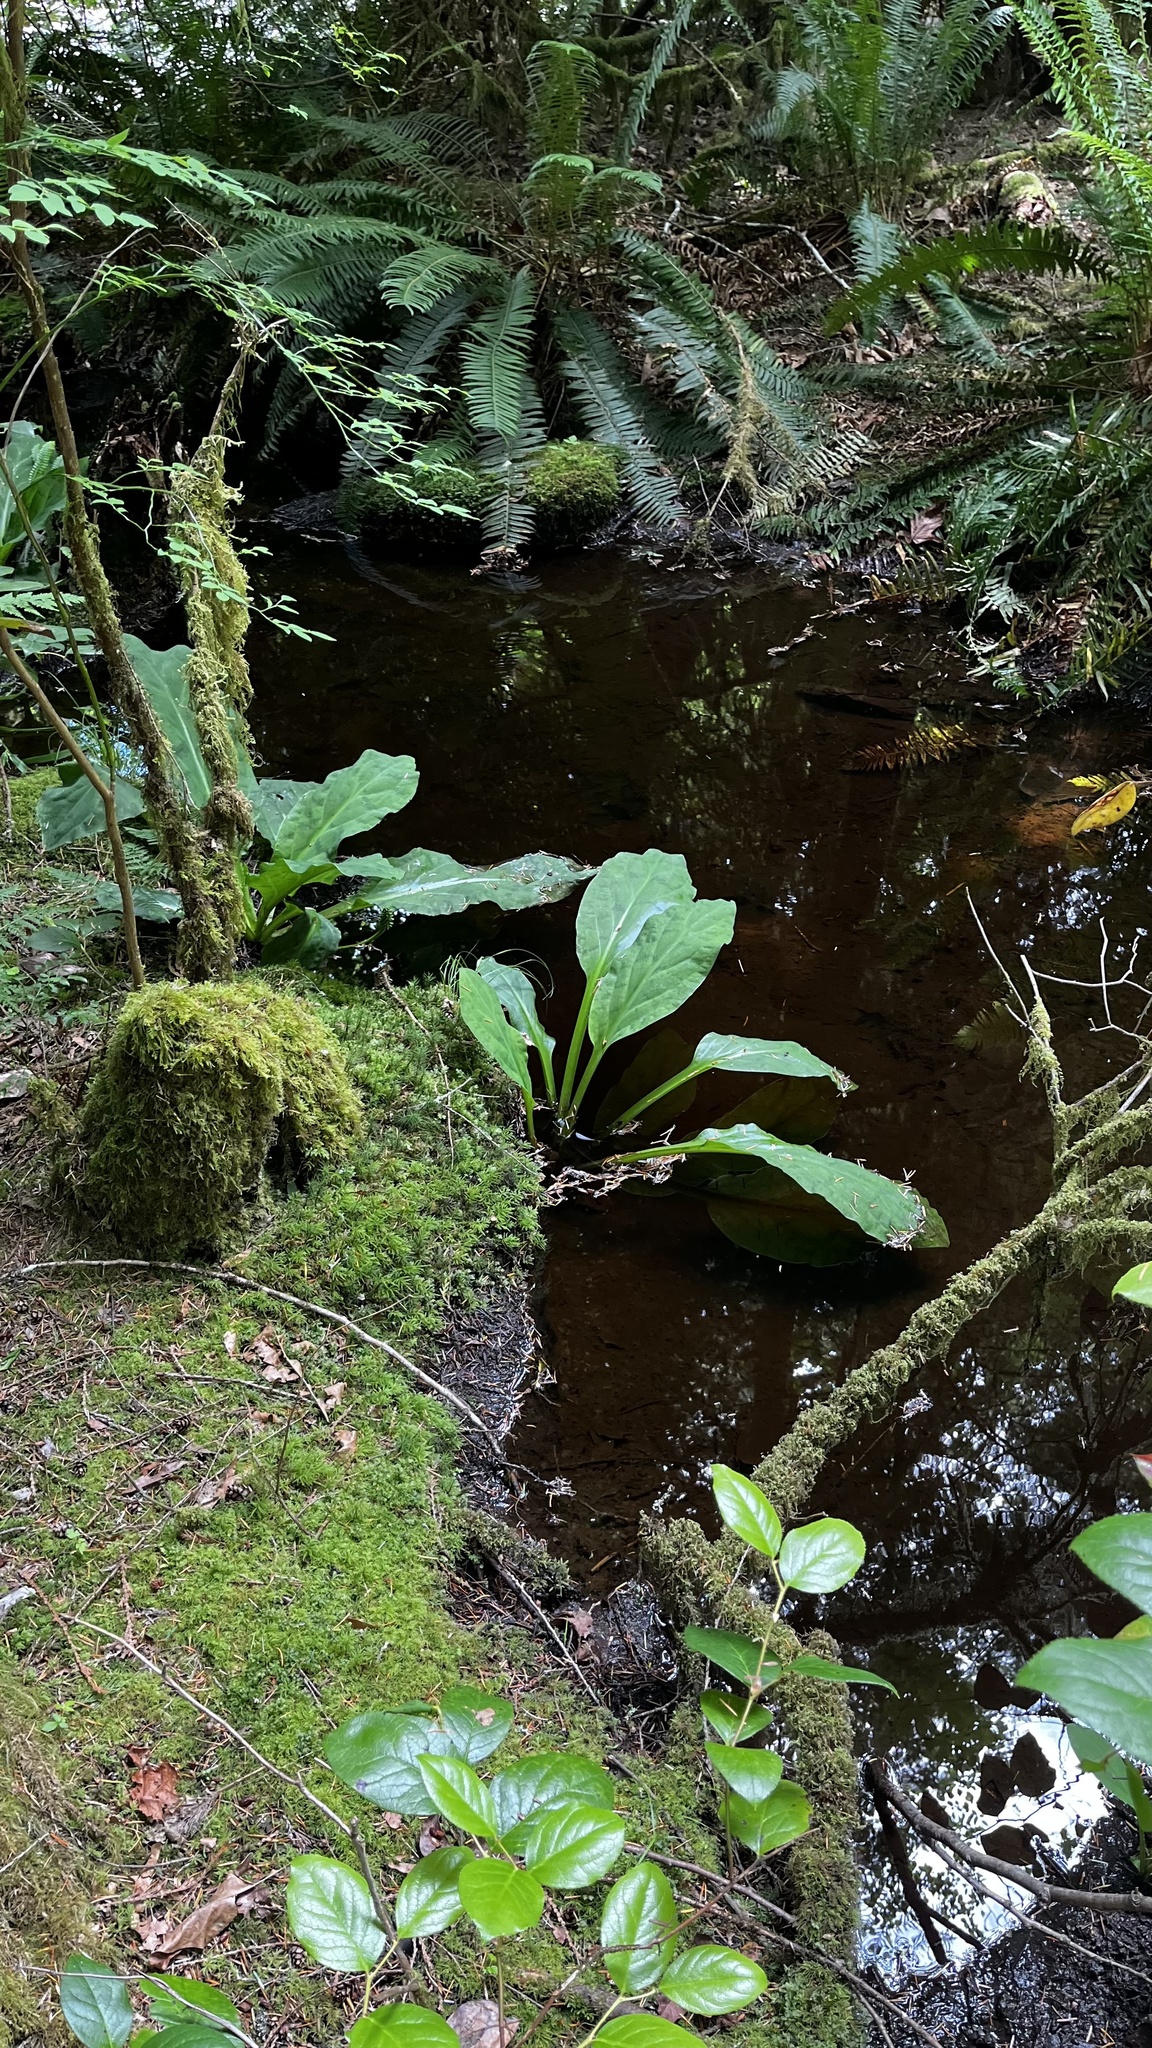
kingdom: Plantae
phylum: Tracheophyta
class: Liliopsida
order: Alismatales
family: Araceae
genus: Lysichiton
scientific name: Lysichiton americanus
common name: American skunk cabbage
